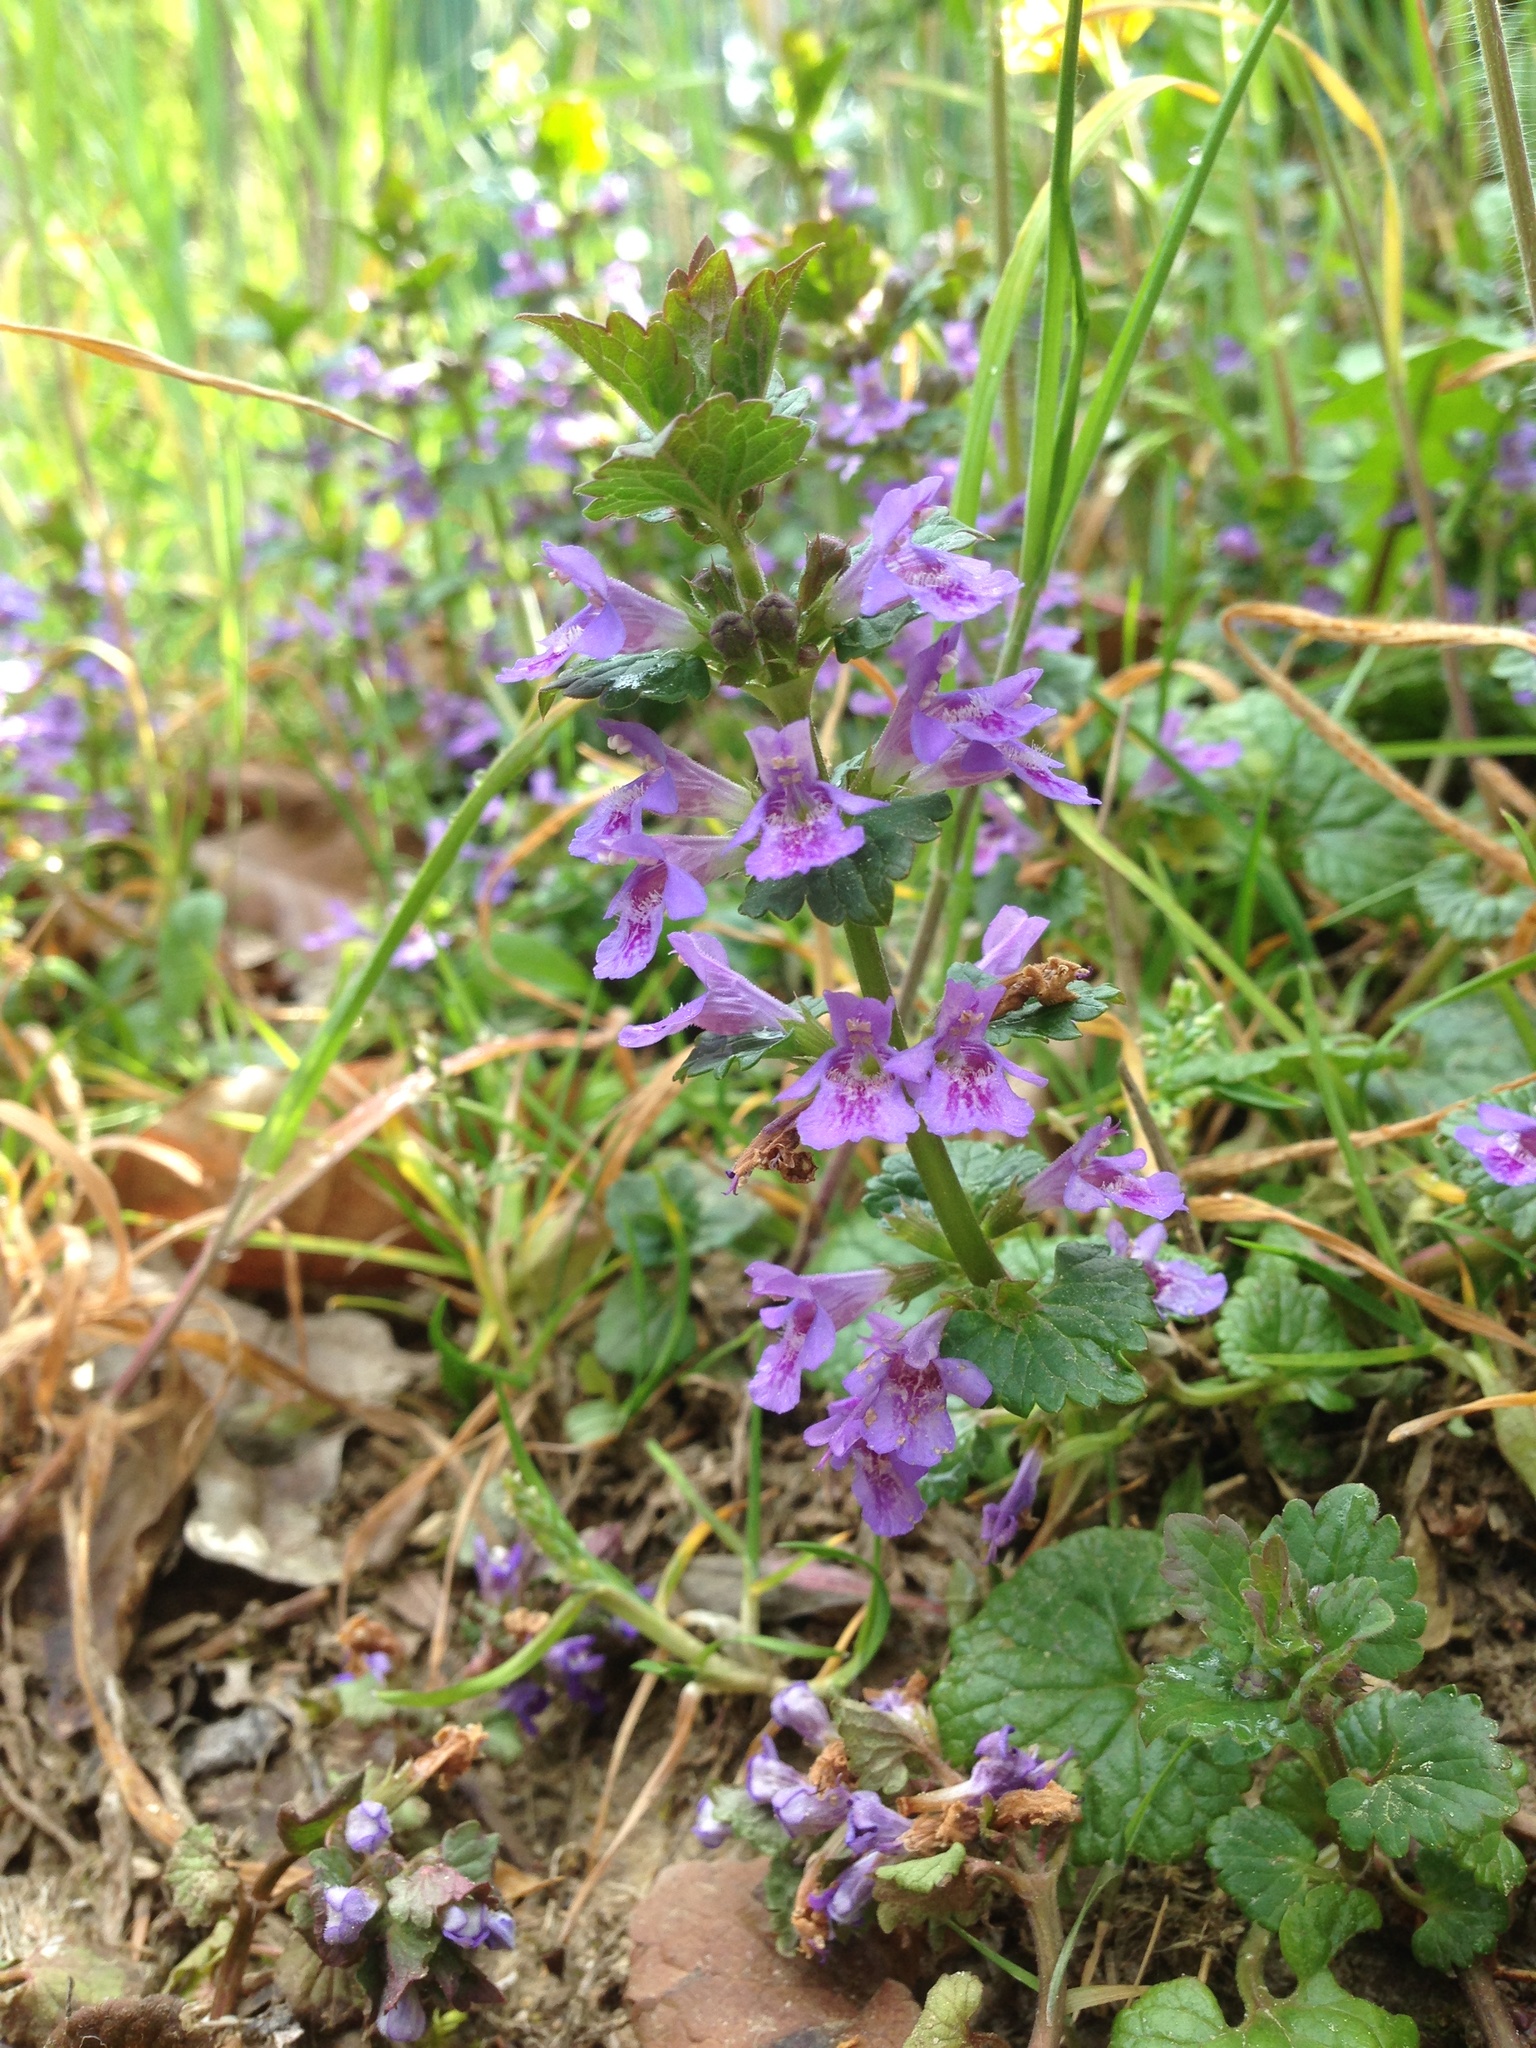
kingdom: Plantae
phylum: Tracheophyta
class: Magnoliopsida
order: Lamiales
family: Lamiaceae
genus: Glechoma
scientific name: Glechoma hederacea
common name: Ground ivy
